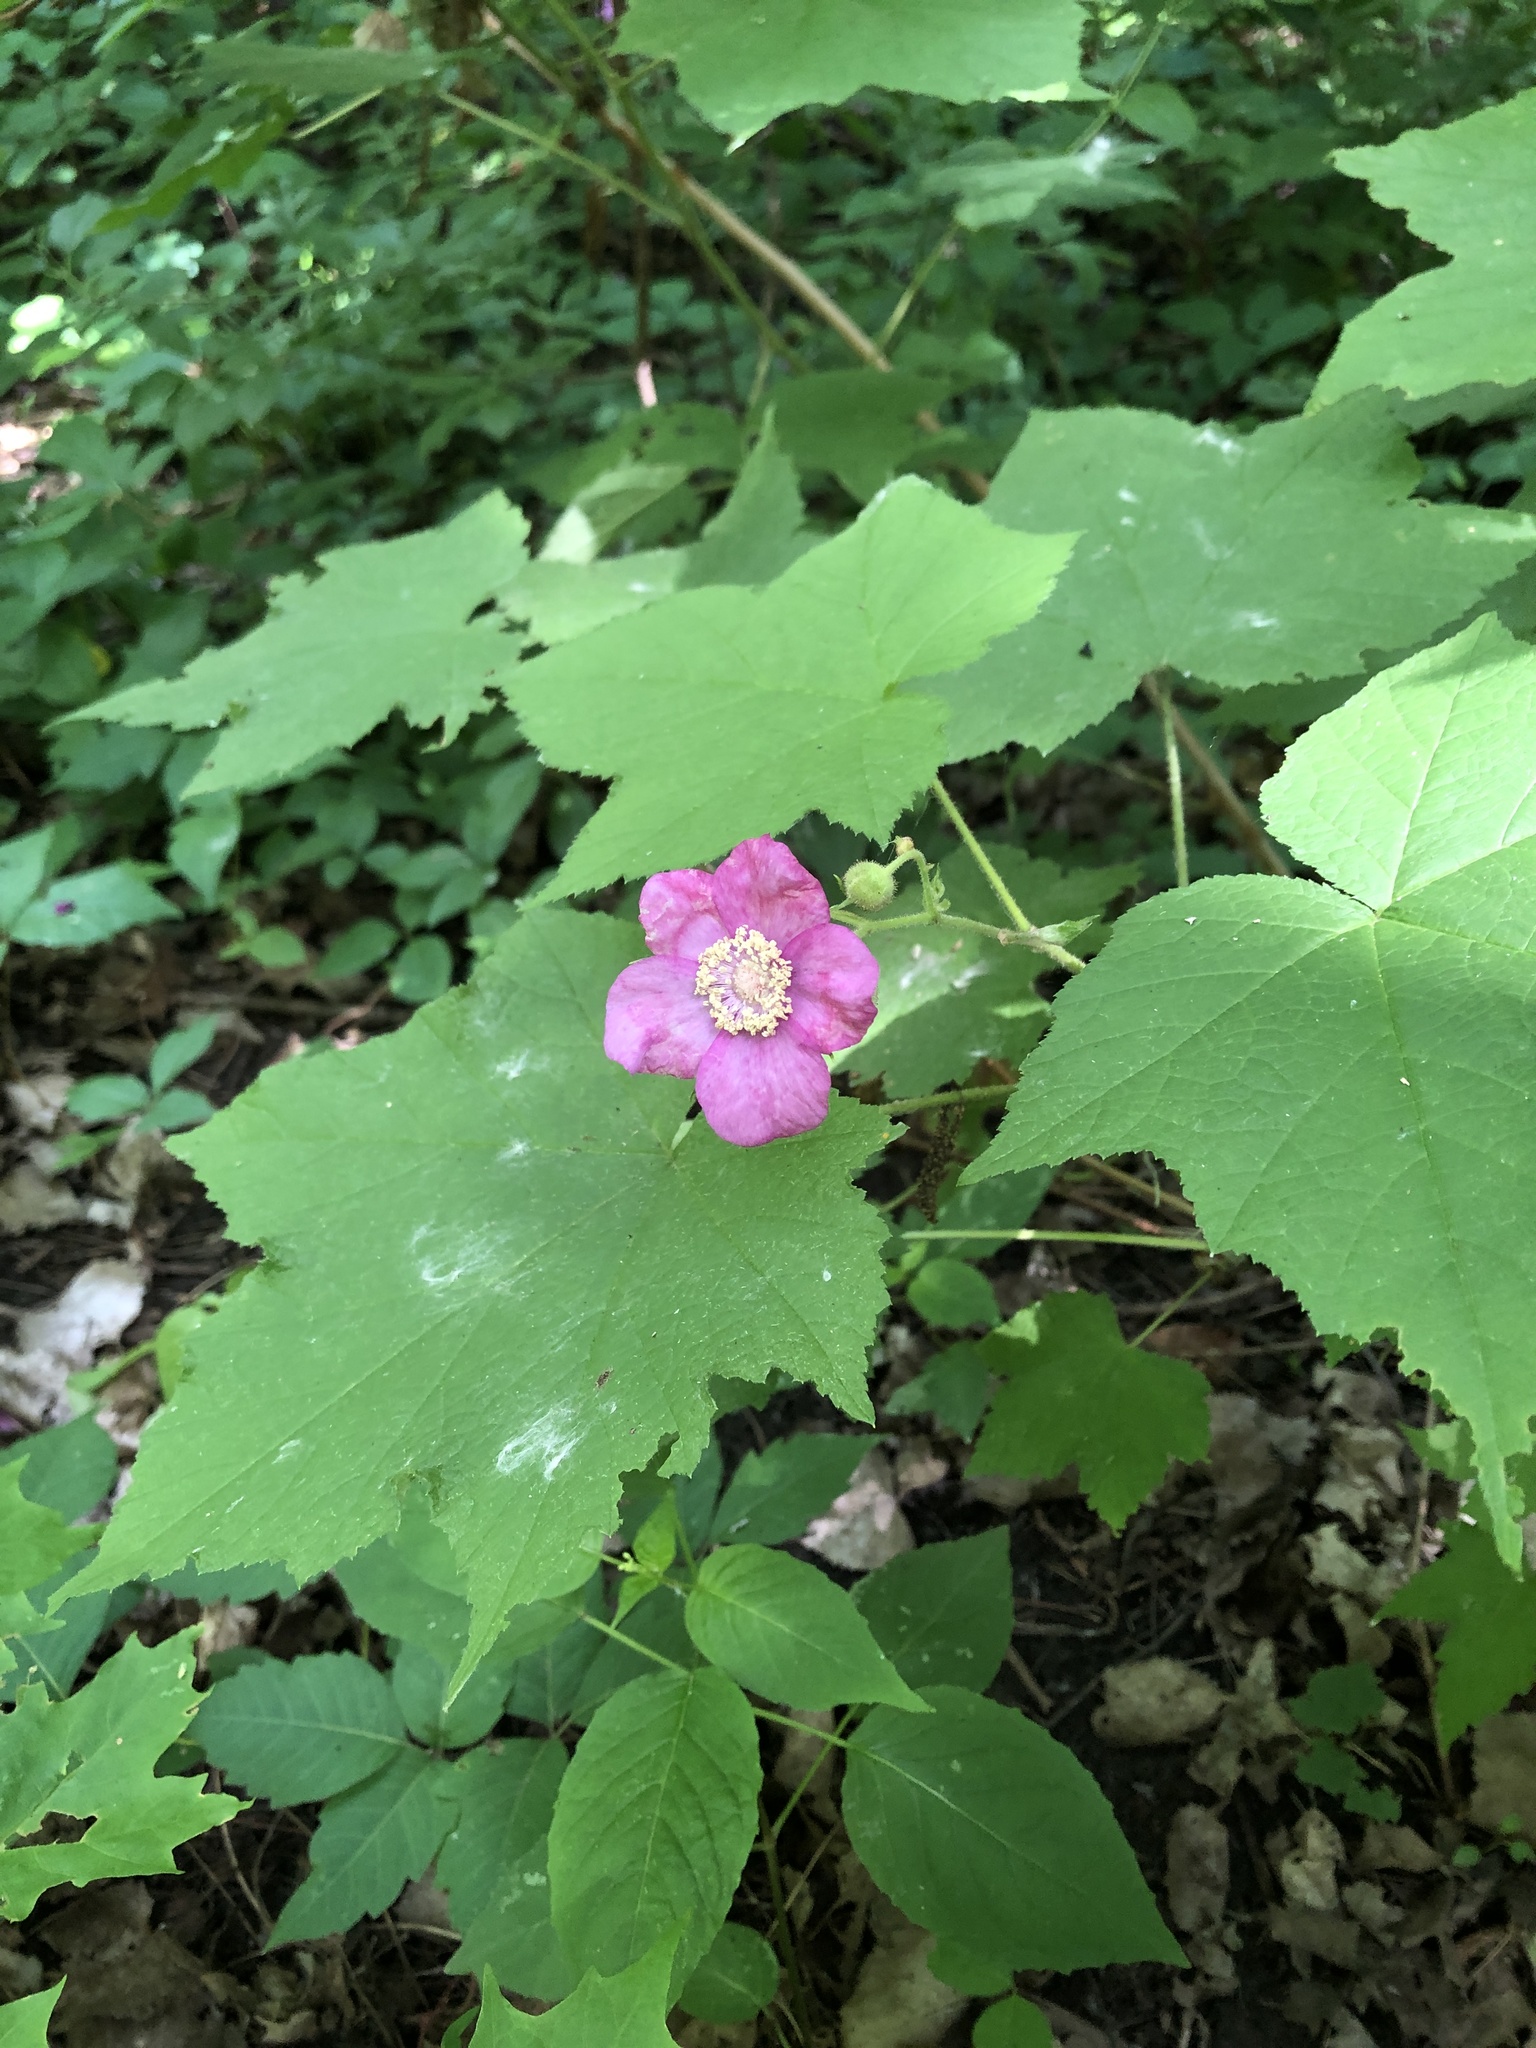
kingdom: Plantae
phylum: Tracheophyta
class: Magnoliopsida
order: Rosales
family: Rosaceae
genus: Rubus
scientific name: Rubus odoratus
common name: Purple-flowered raspberry
